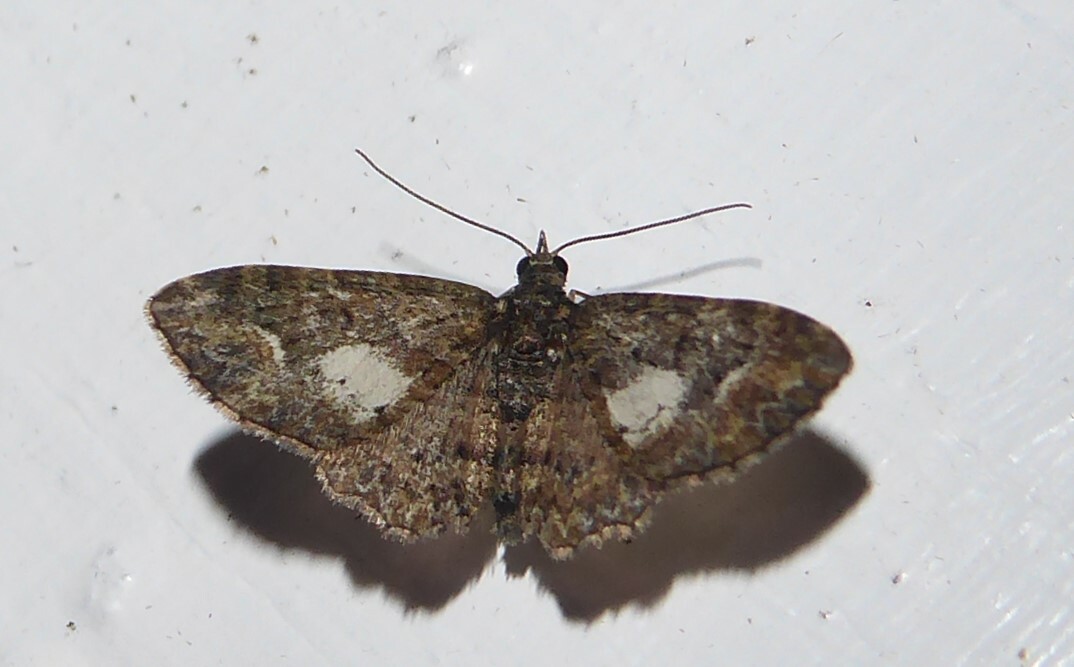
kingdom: Animalia
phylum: Arthropoda
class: Insecta
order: Lepidoptera
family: Geometridae
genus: Pasiphilodes
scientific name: Pasiphilodes testulata
